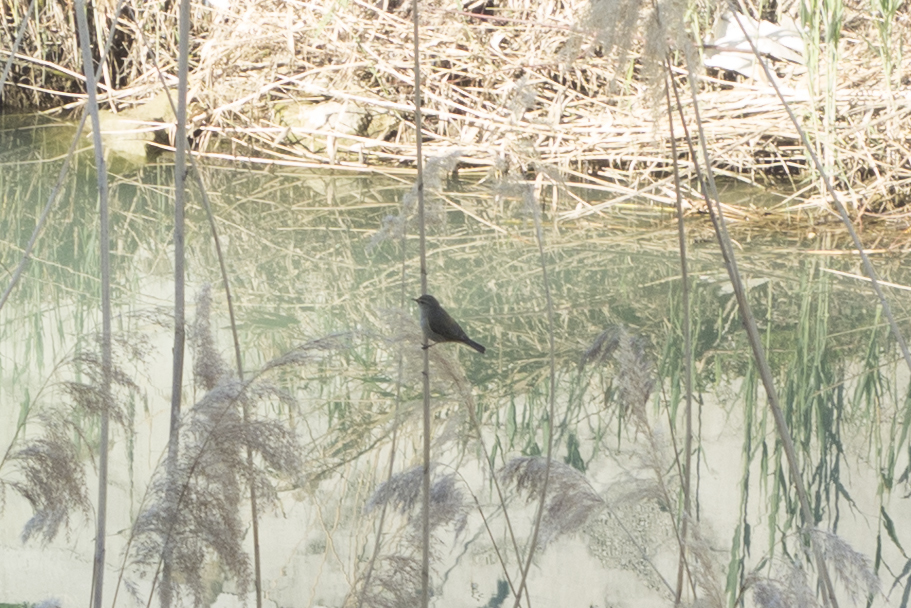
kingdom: Animalia
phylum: Chordata
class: Aves
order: Passeriformes
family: Phylloscopidae
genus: Phylloscopus
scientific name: Phylloscopus collybita
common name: Common chiffchaff
